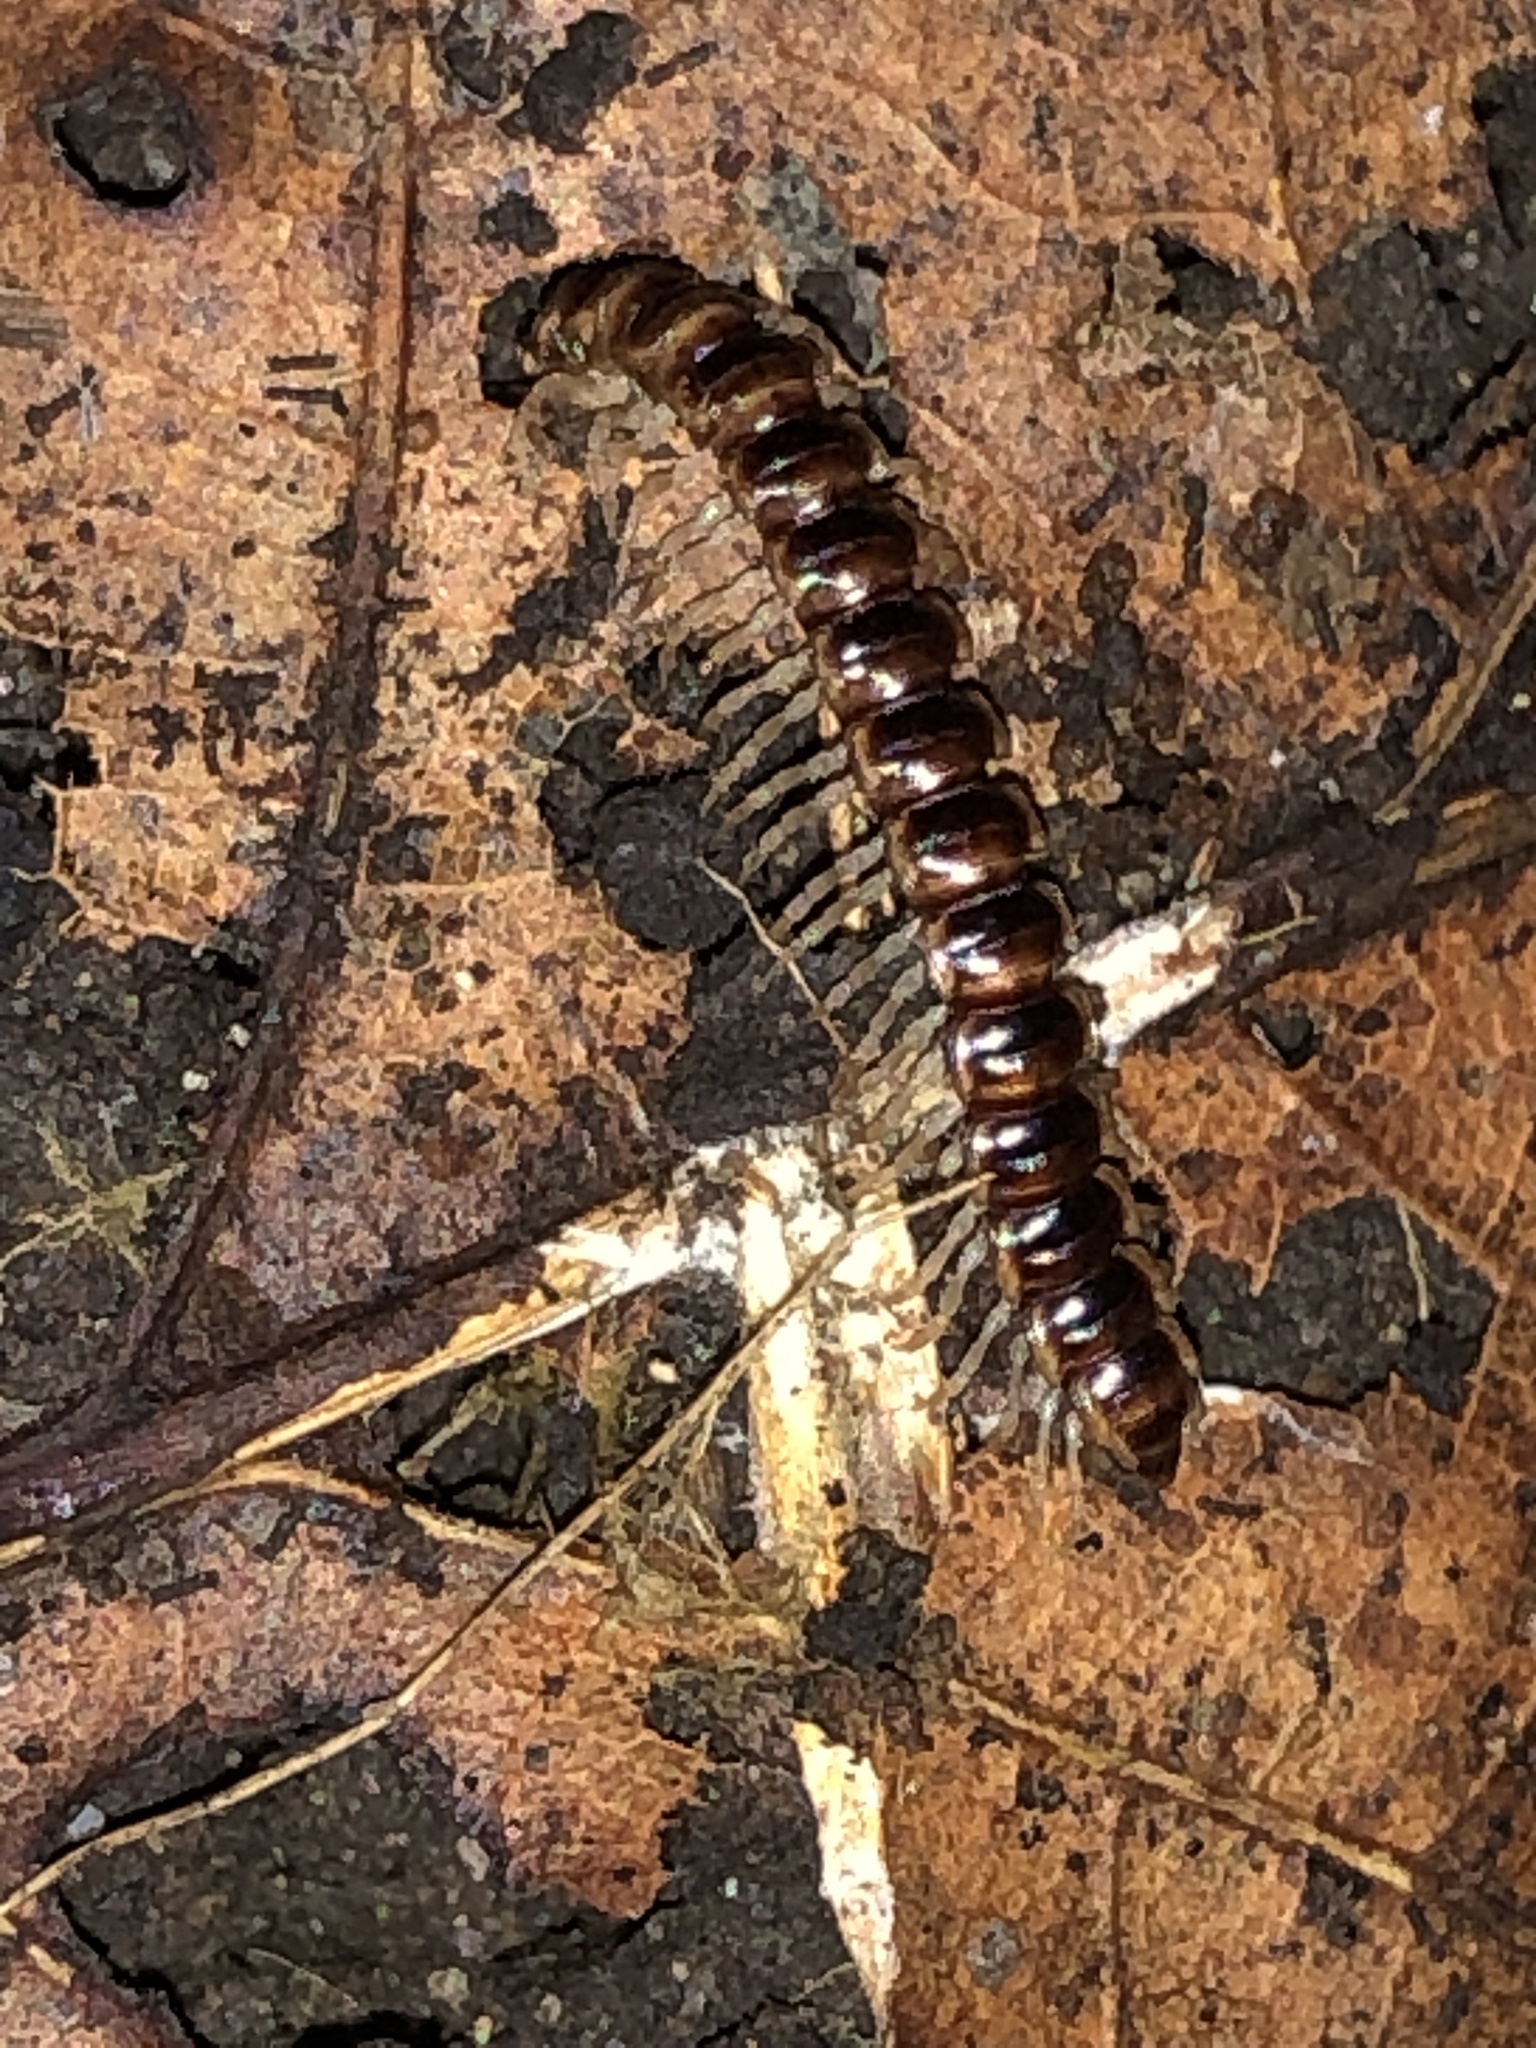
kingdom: Animalia
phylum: Arthropoda
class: Diplopoda
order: Polydesmida
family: Paradoxosomatidae
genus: Oxidus
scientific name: Oxidus gracilis
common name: Greenhouse millipede
